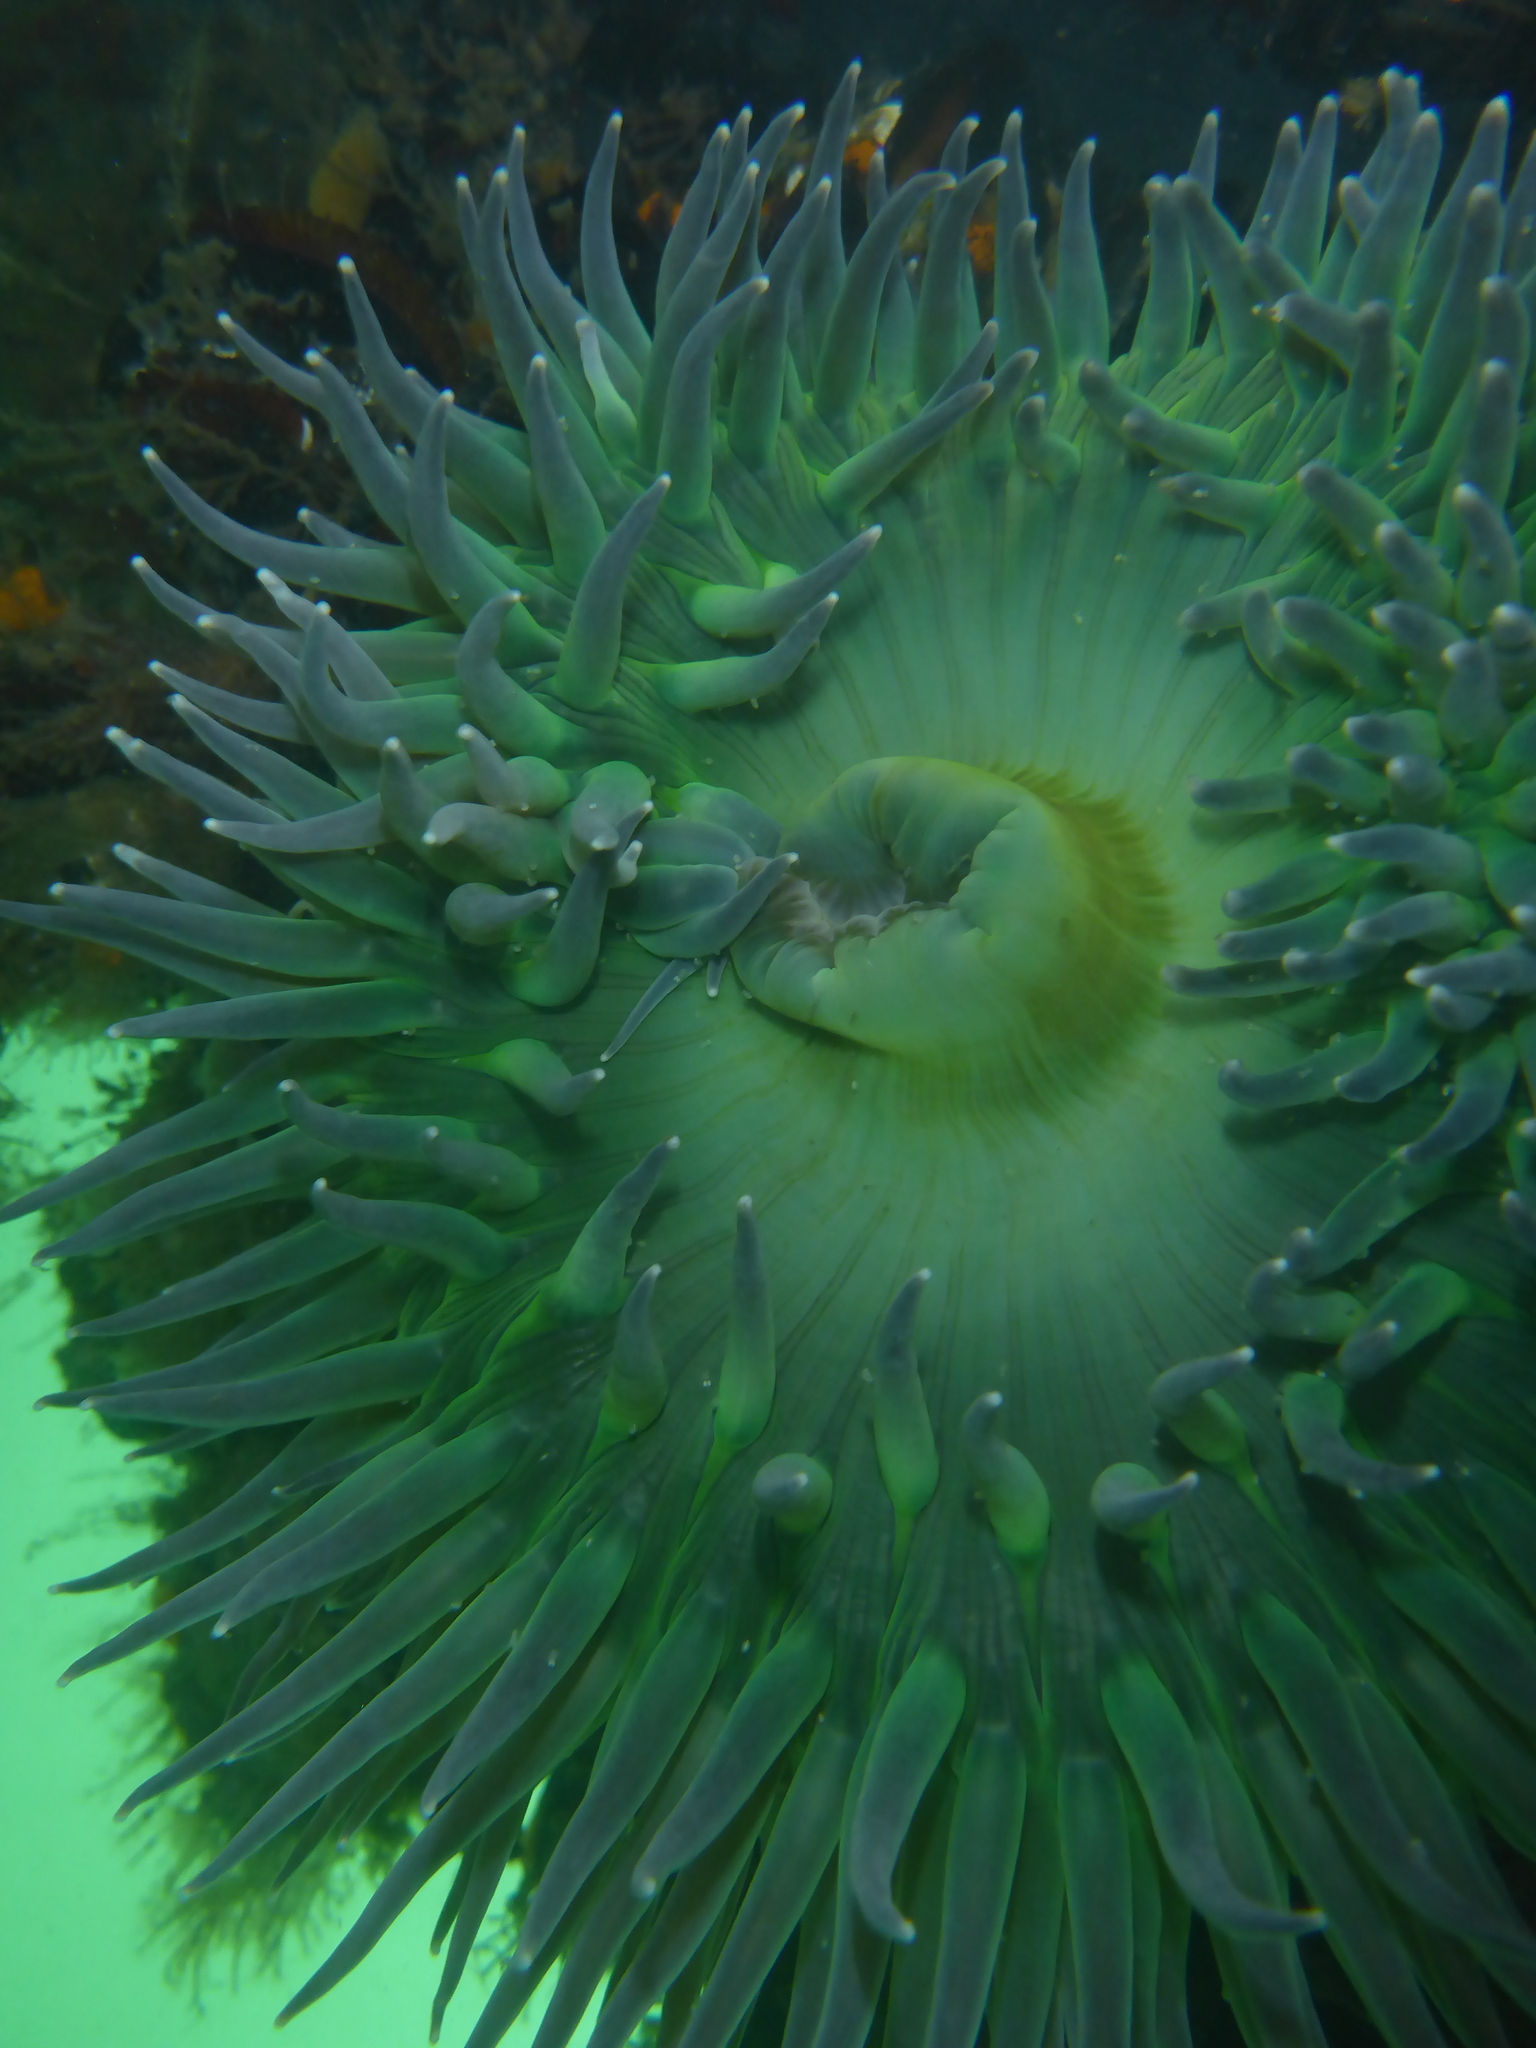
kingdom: Animalia
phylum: Cnidaria
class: Anthozoa
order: Actiniaria
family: Actiniidae
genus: Anthopleura
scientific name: Anthopleura xanthogrammica
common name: Giant green anemone
